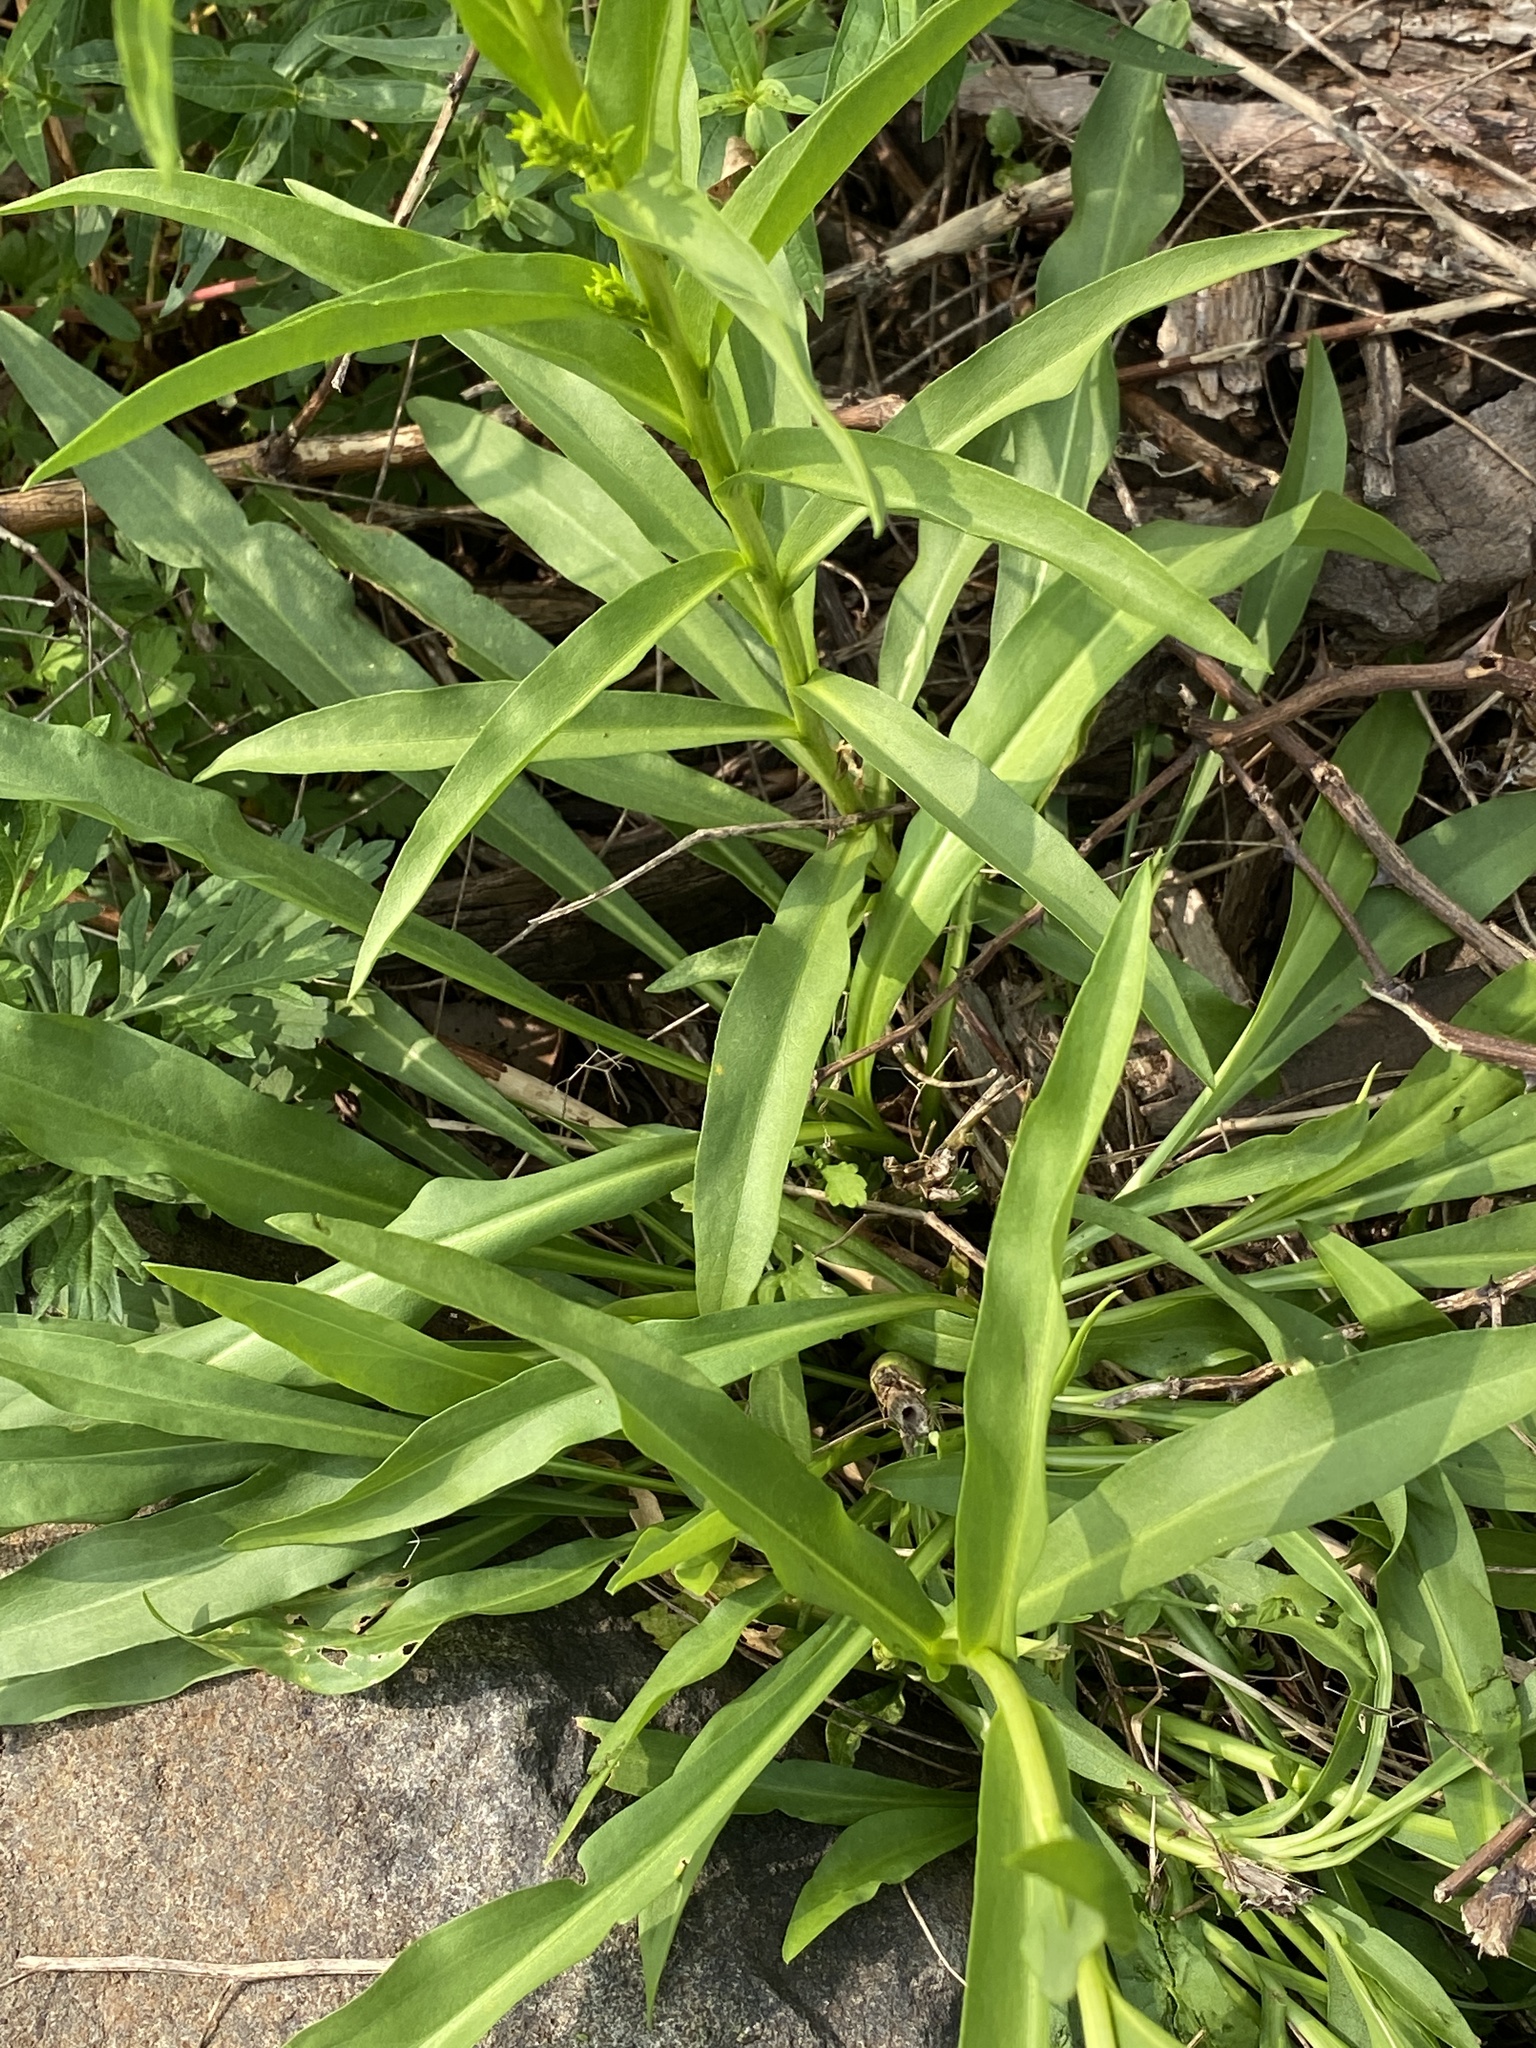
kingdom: Plantae
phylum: Tracheophyta
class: Magnoliopsida
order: Asterales
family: Asteraceae
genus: Solidago
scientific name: Solidago sempervirens
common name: Salt-marsh goldenrod
